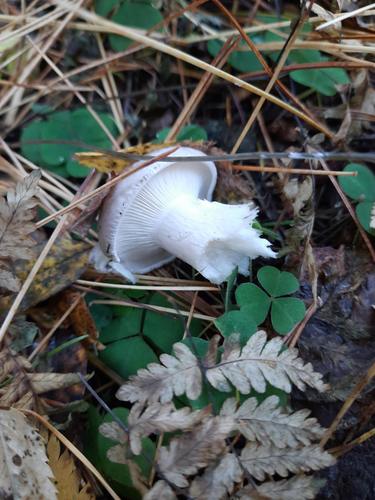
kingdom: Fungi
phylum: Basidiomycota
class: Agaricomycetes
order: Agaricales
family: Tricholomataceae
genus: Clitocybe
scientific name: Clitocybe nebularis
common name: Clouded agaric
